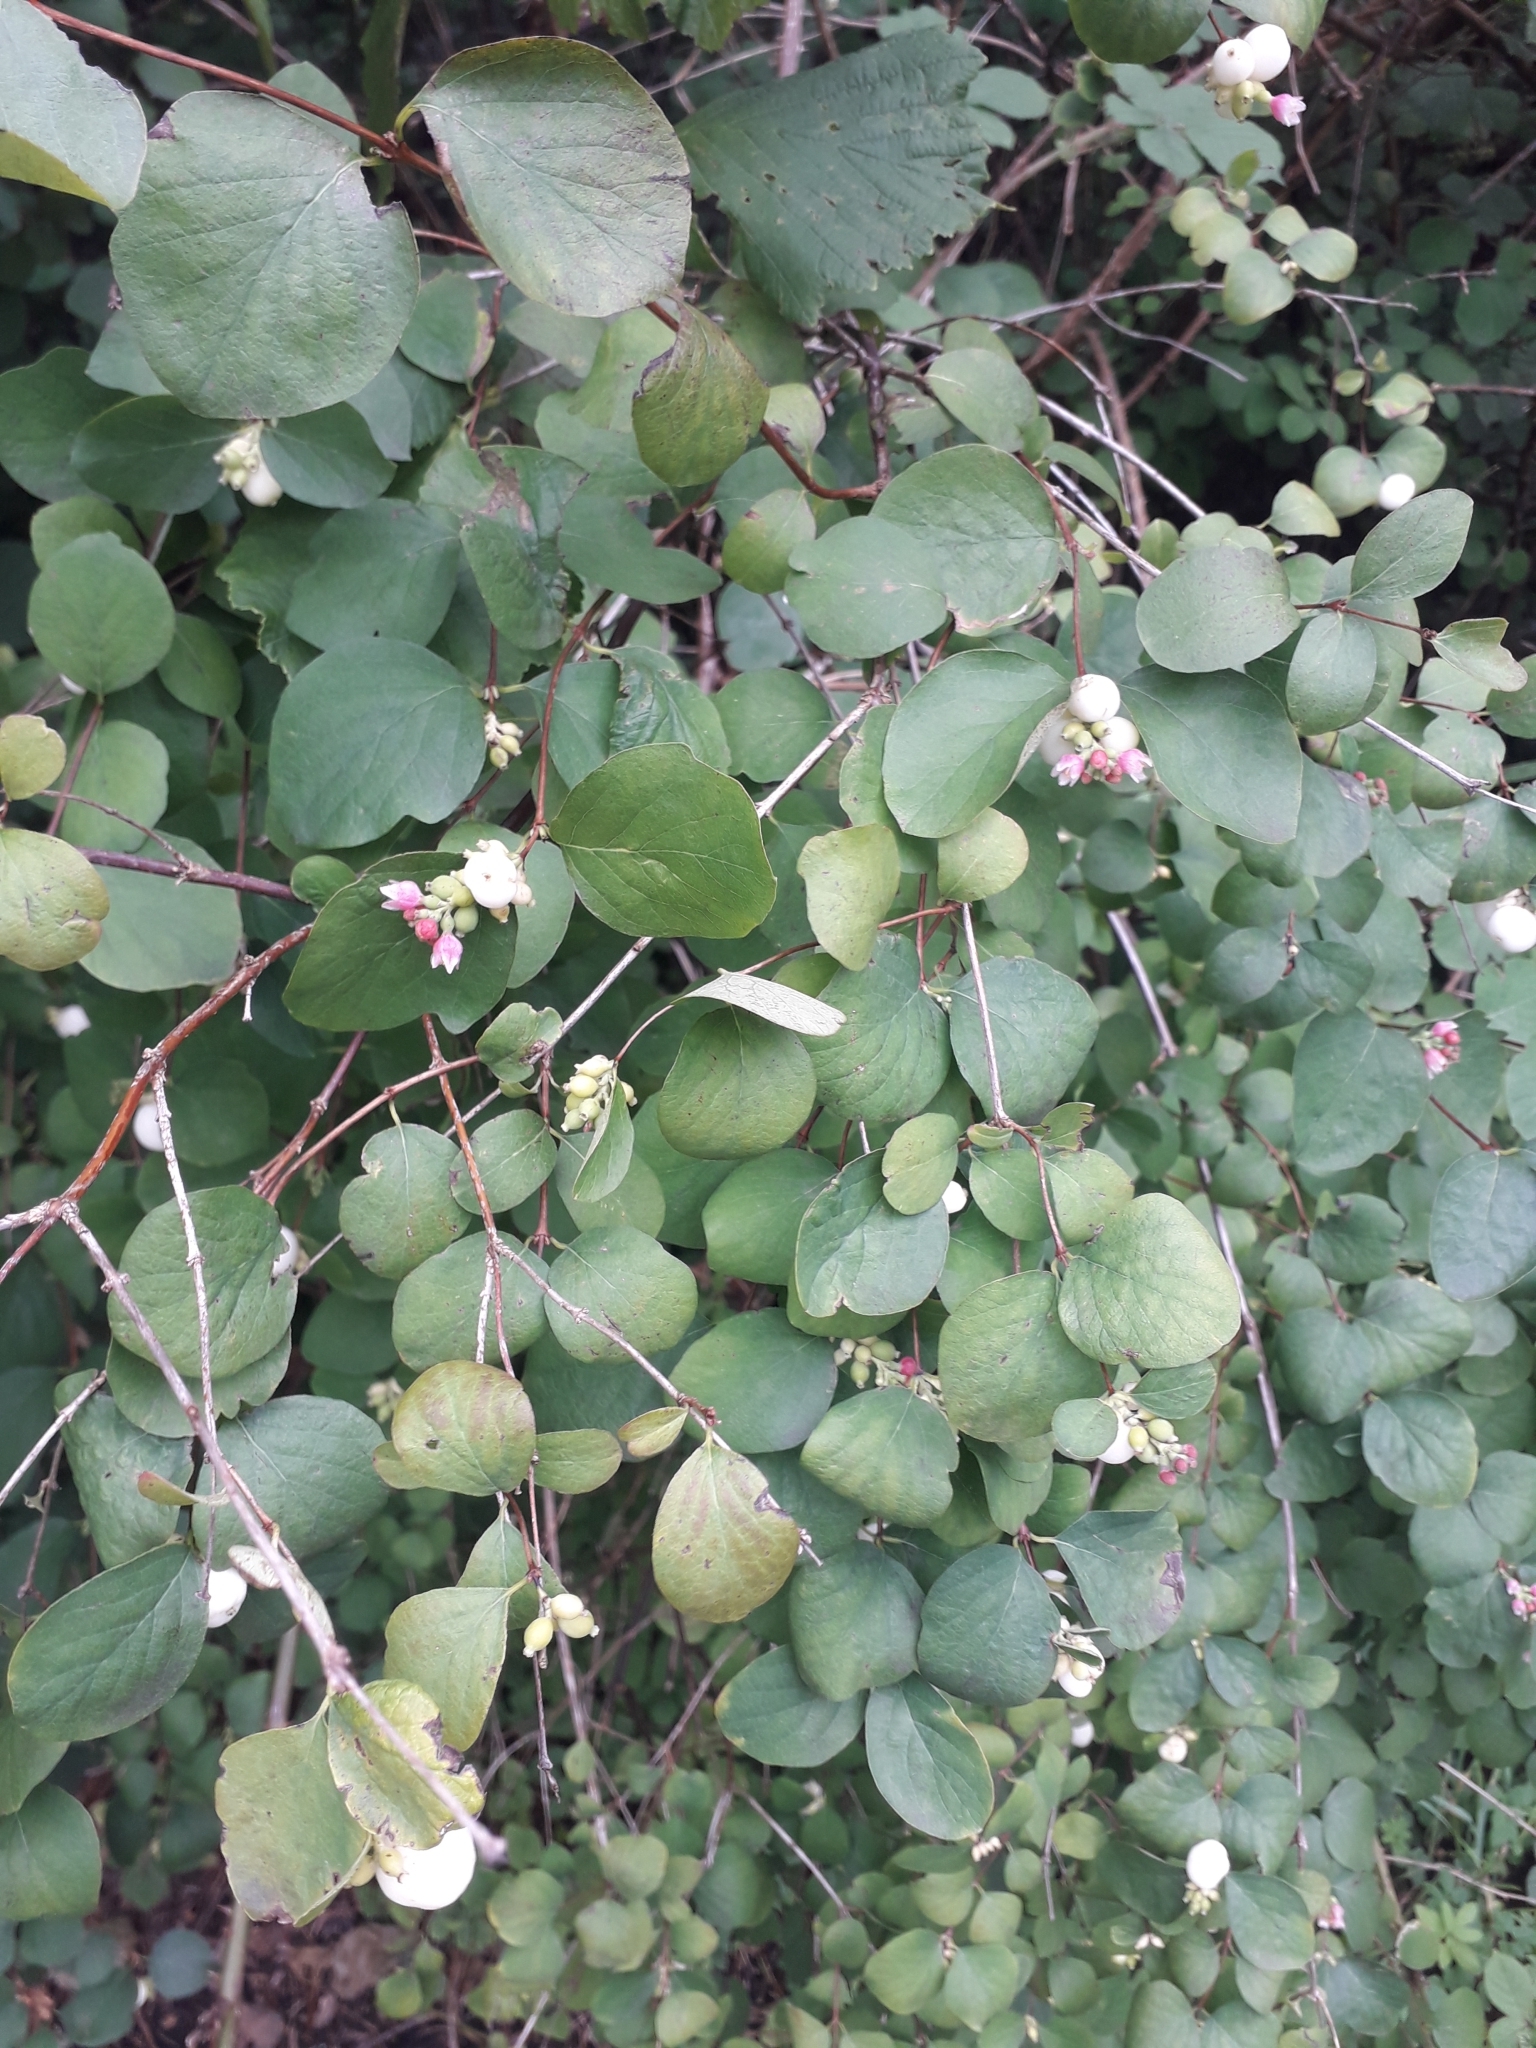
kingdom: Plantae
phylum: Tracheophyta
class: Magnoliopsida
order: Dipsacales
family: Caprifoliaceae
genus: Symphoricarpos
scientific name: Symphoricarpos albus
